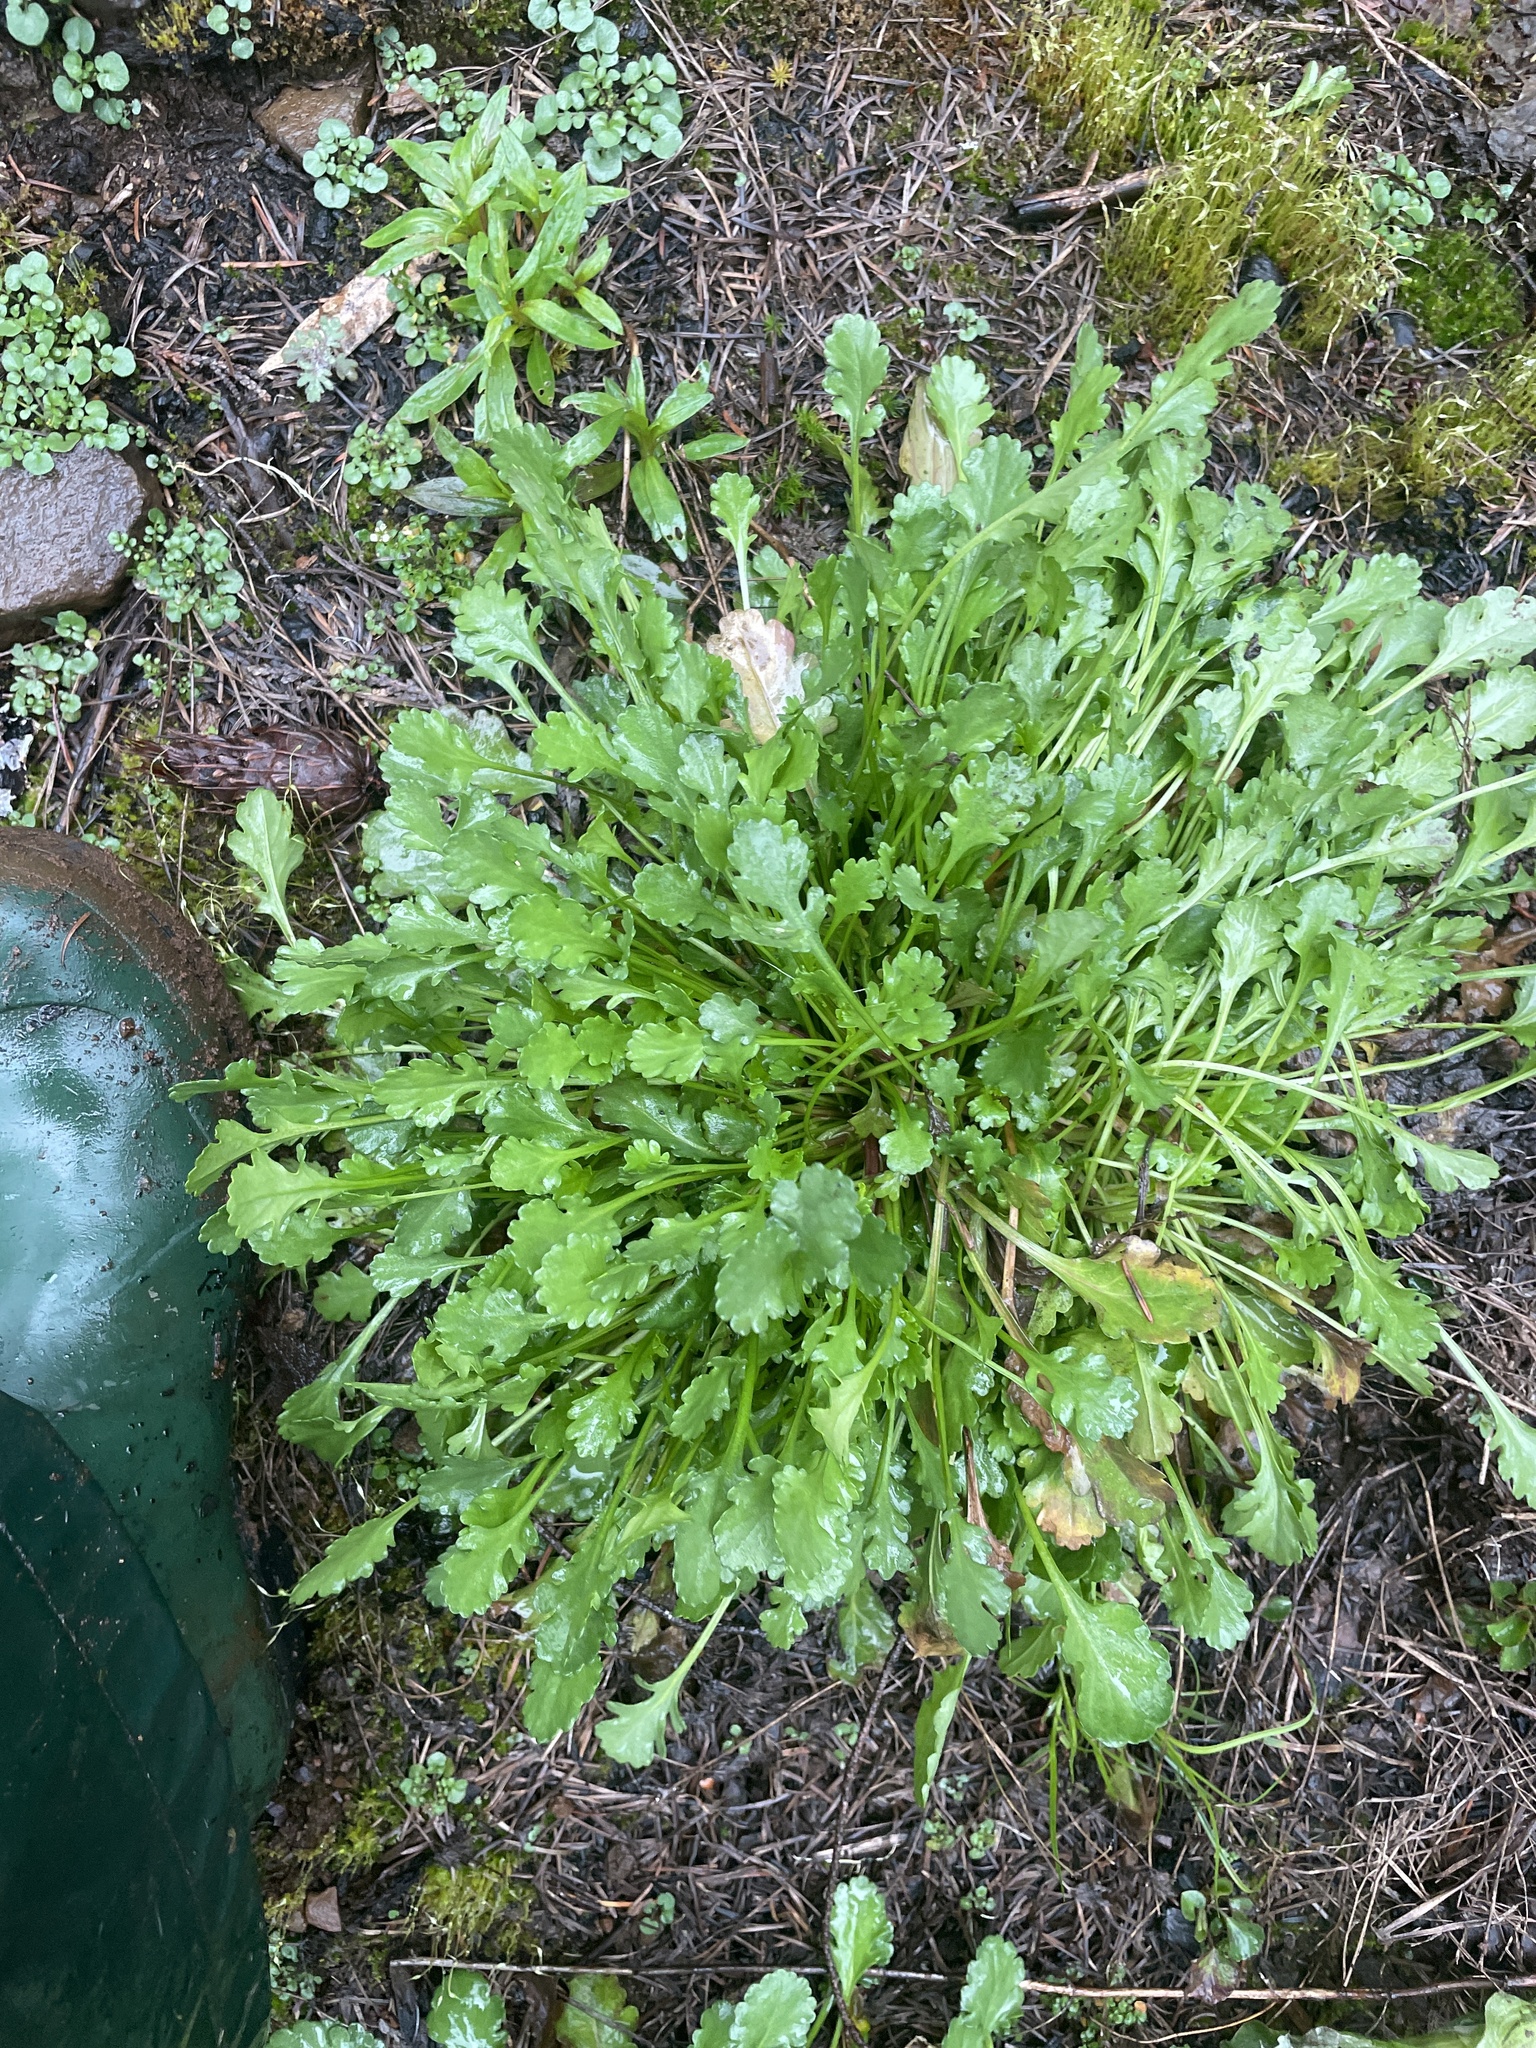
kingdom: Plantae
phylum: Tracheophyta
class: Magnoliopsida
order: Asterales
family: Asteraceae
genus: Leucanthemum
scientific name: Leucanthemum vulgare
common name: Oxeye daisy
